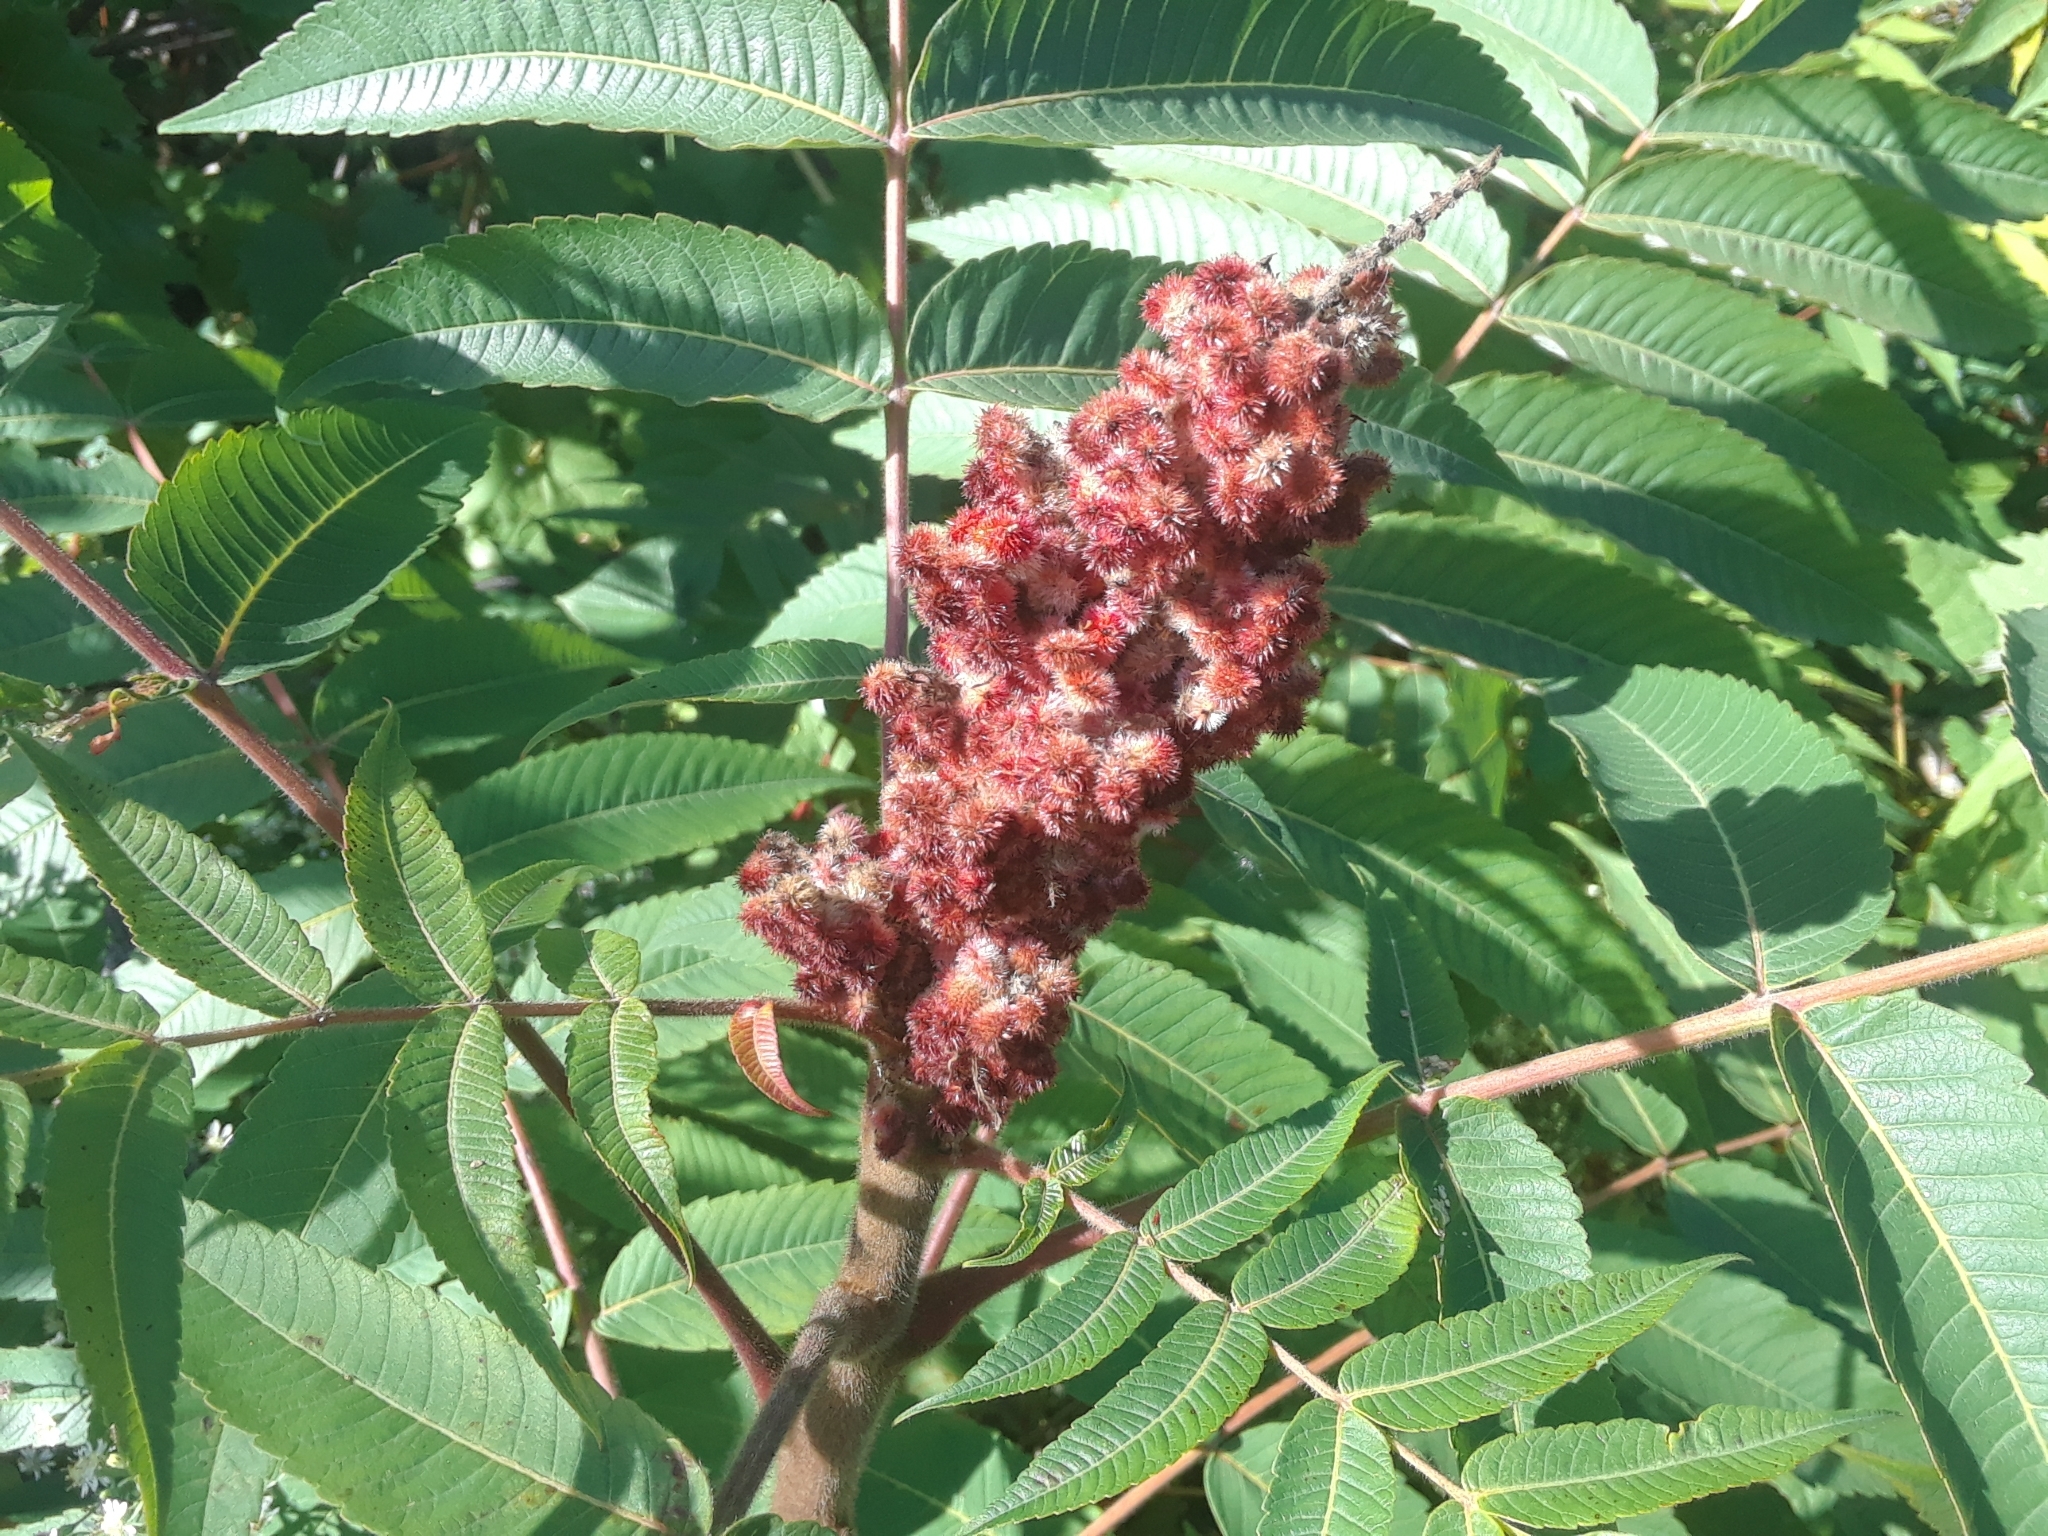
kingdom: Plantae
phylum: Tracheophyta
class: Magnoliopsida
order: Sapindales
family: Anacardiaceae
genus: Rhus
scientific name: Rhus typhina
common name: Staghorn sumac
